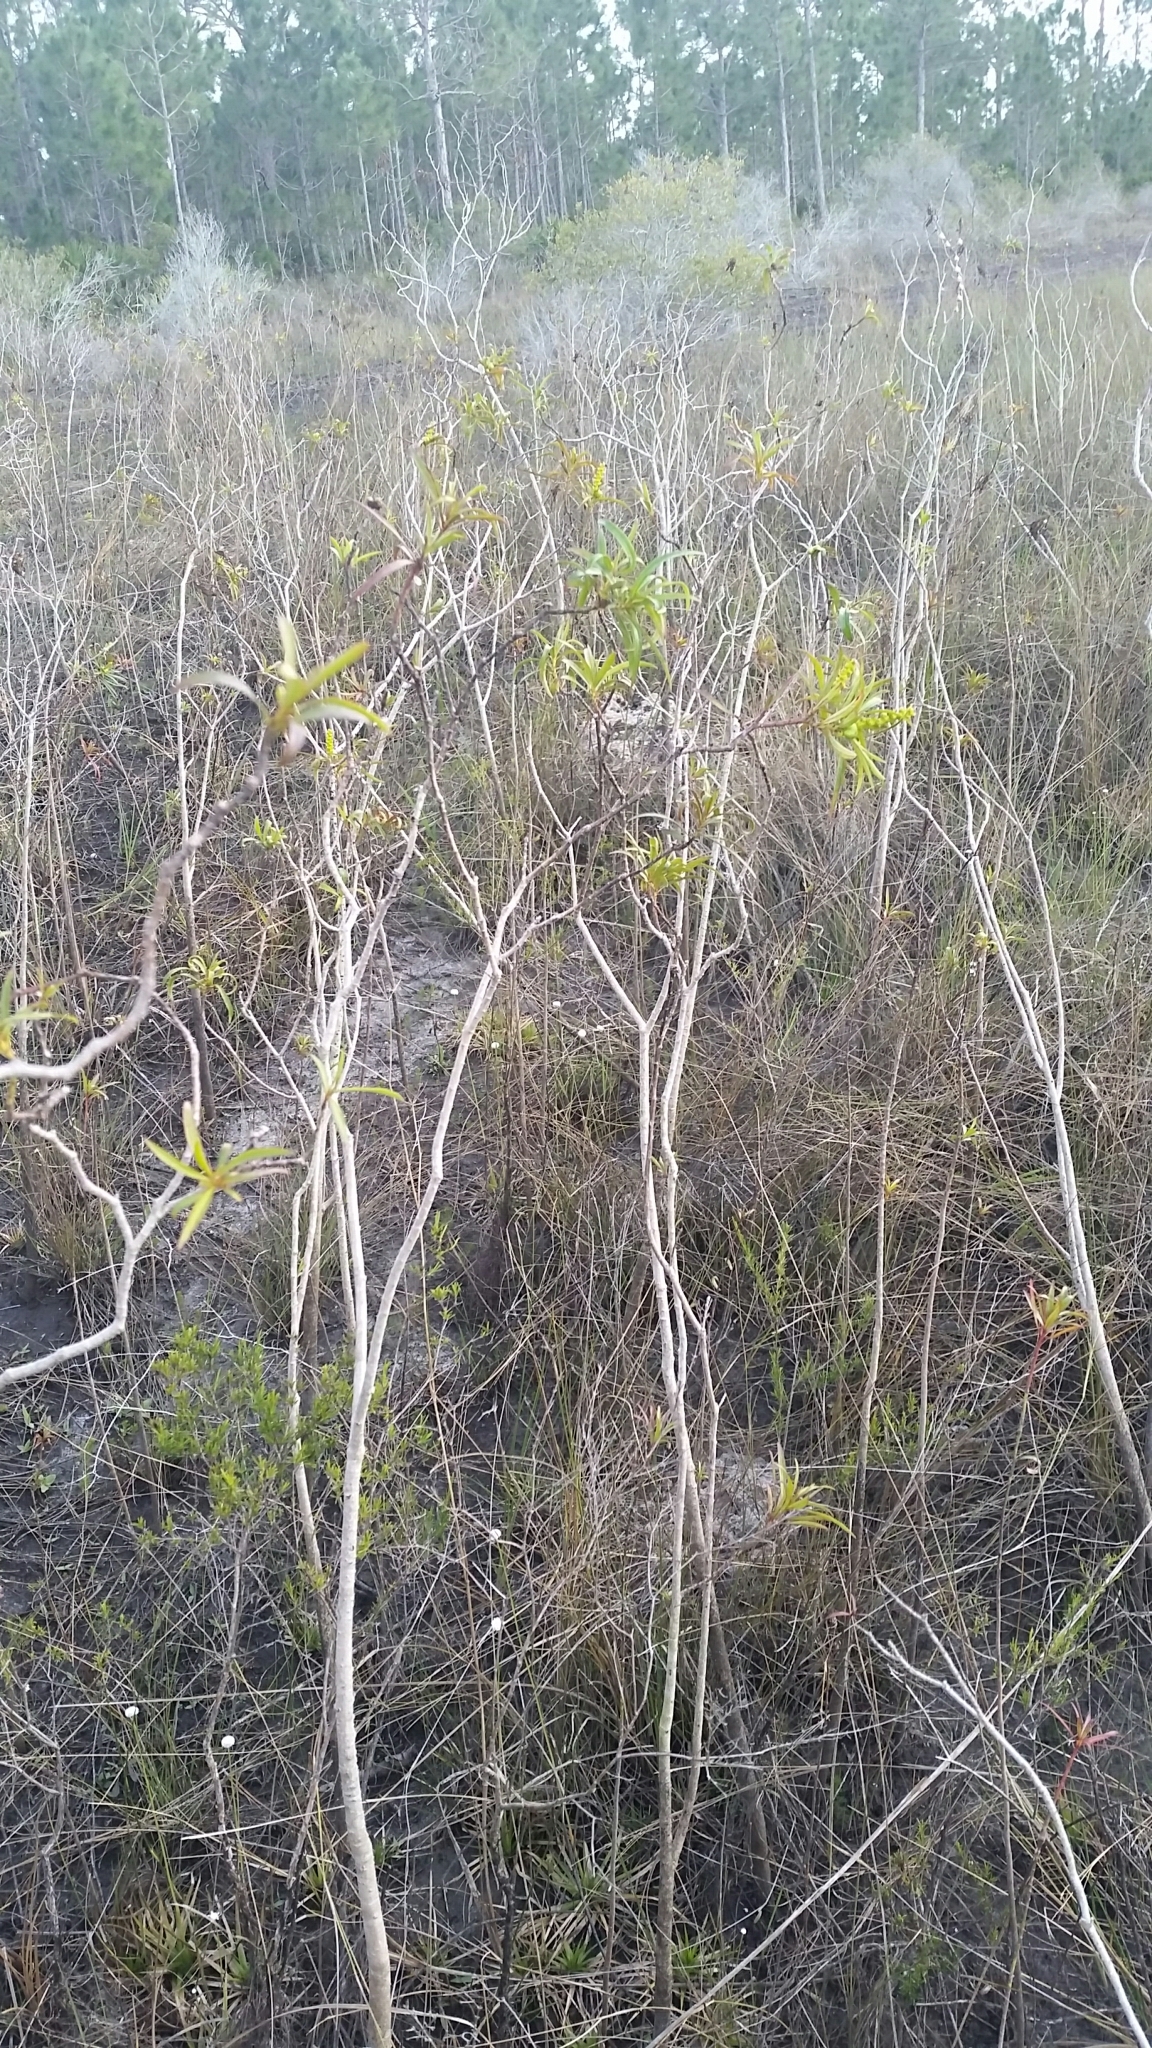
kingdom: Plantae
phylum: Tracheophyta
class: Magnoliopsida
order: Malpighiales
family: Euphorbiaceae
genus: Stillingia
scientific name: Stillingia aquatica
